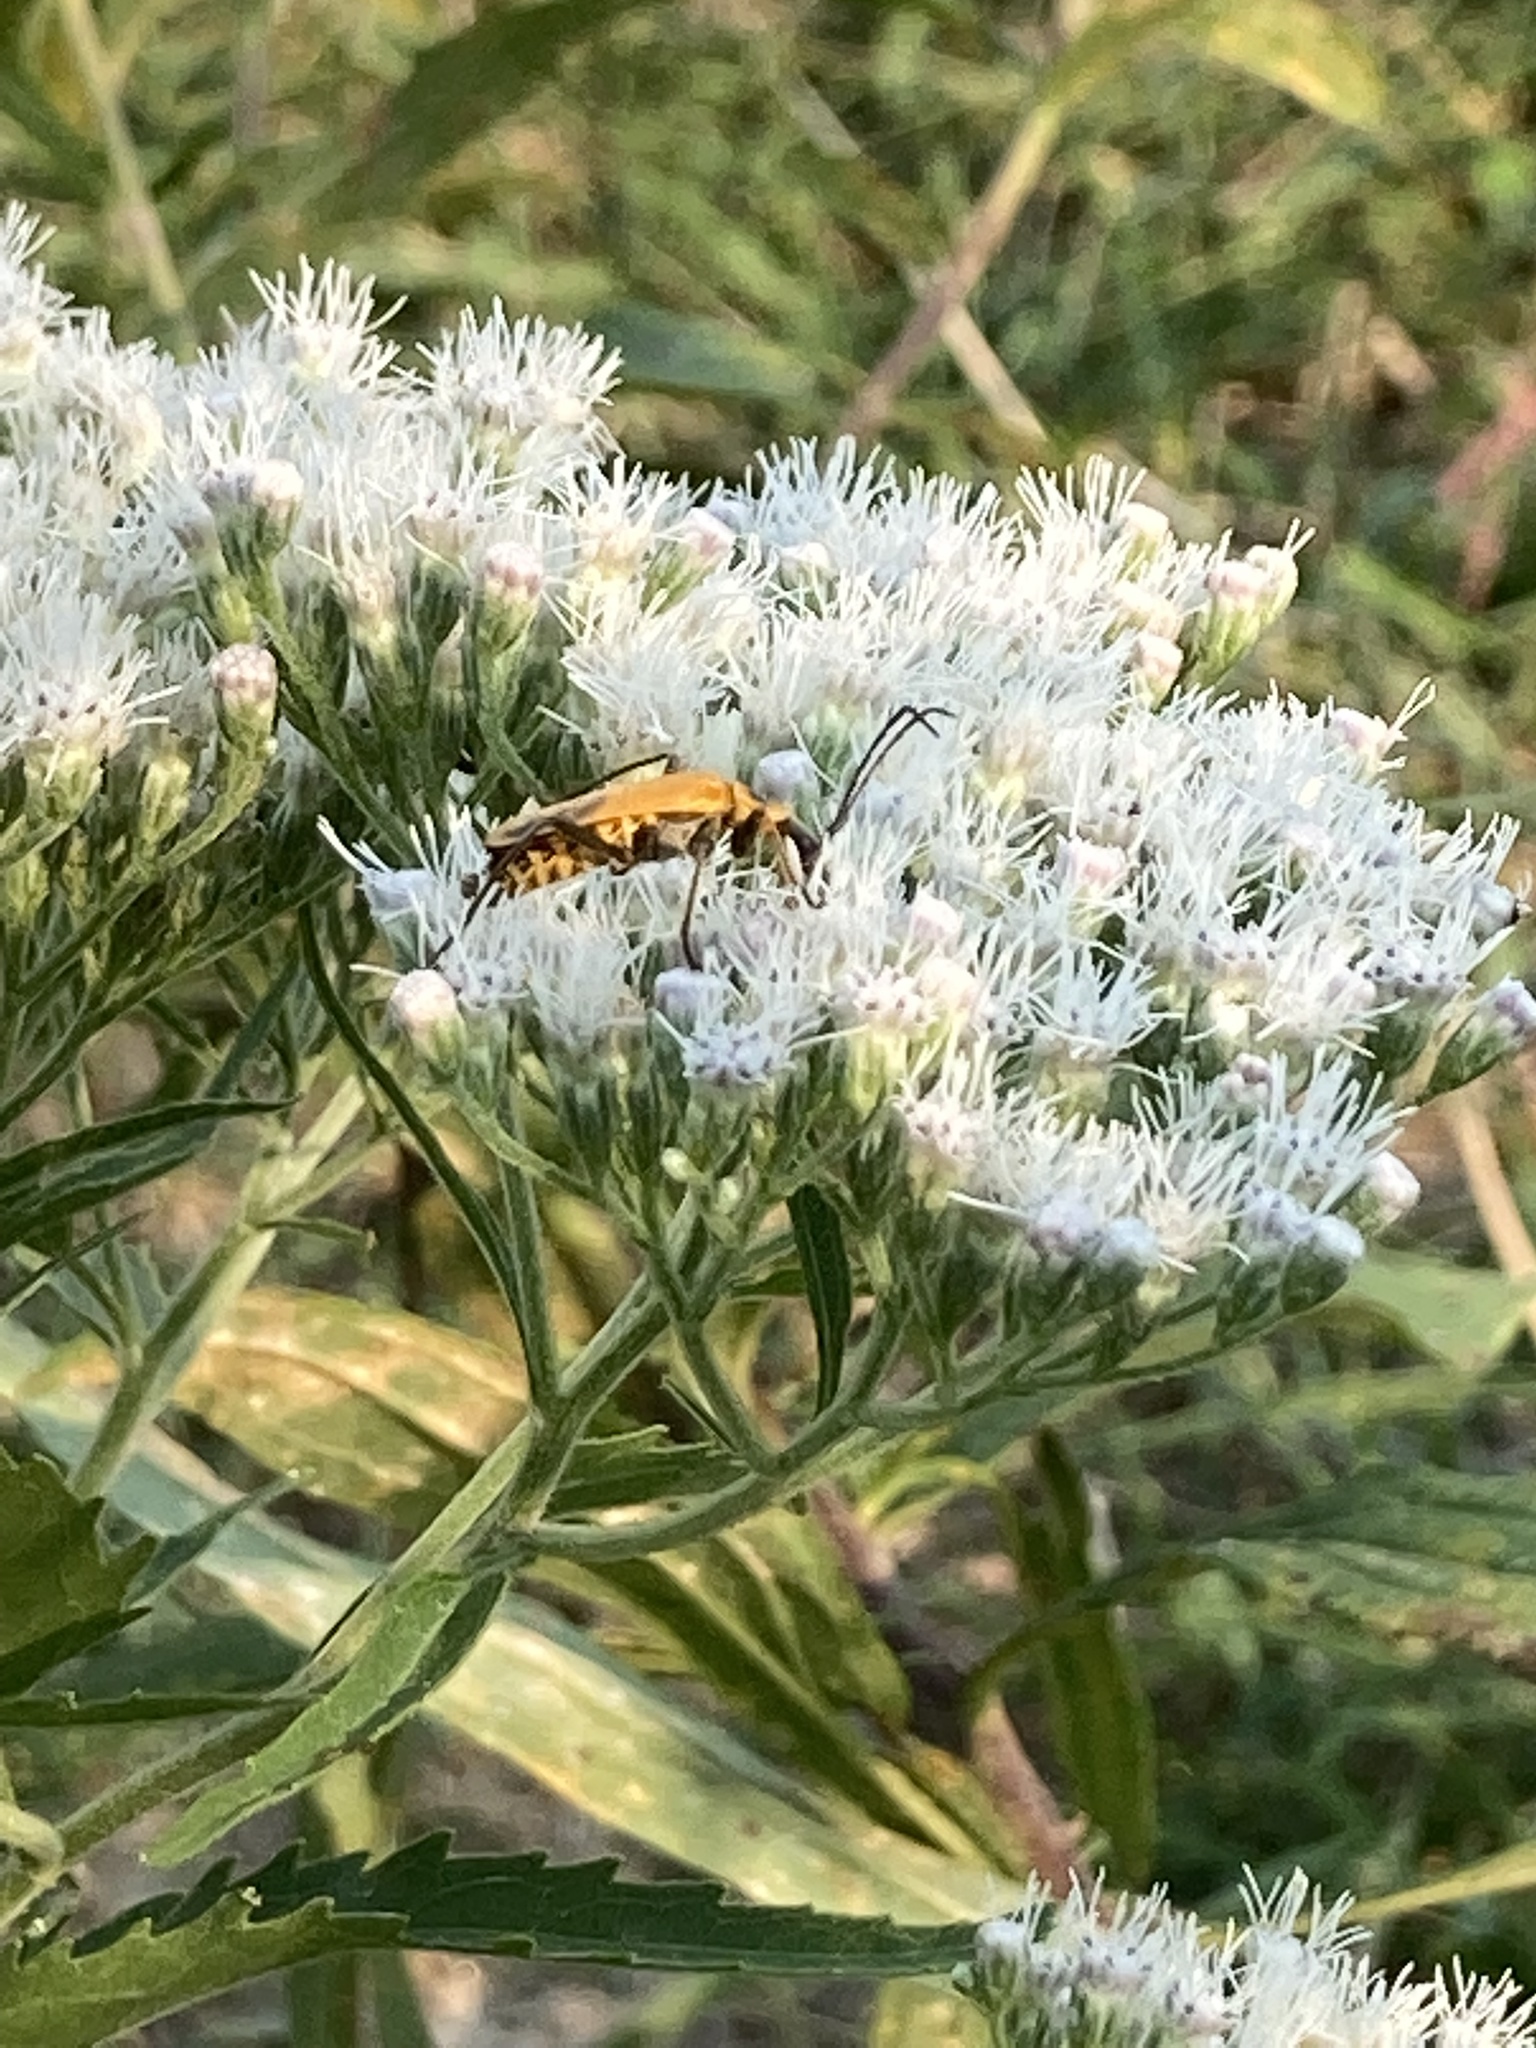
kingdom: Animalia
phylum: Arthropoda
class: Insecta
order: Coleoptera
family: Cantharidae
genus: Chauliognathus
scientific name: Chauliognathus pensylvanicus
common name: Goldenrod soldier beetle
